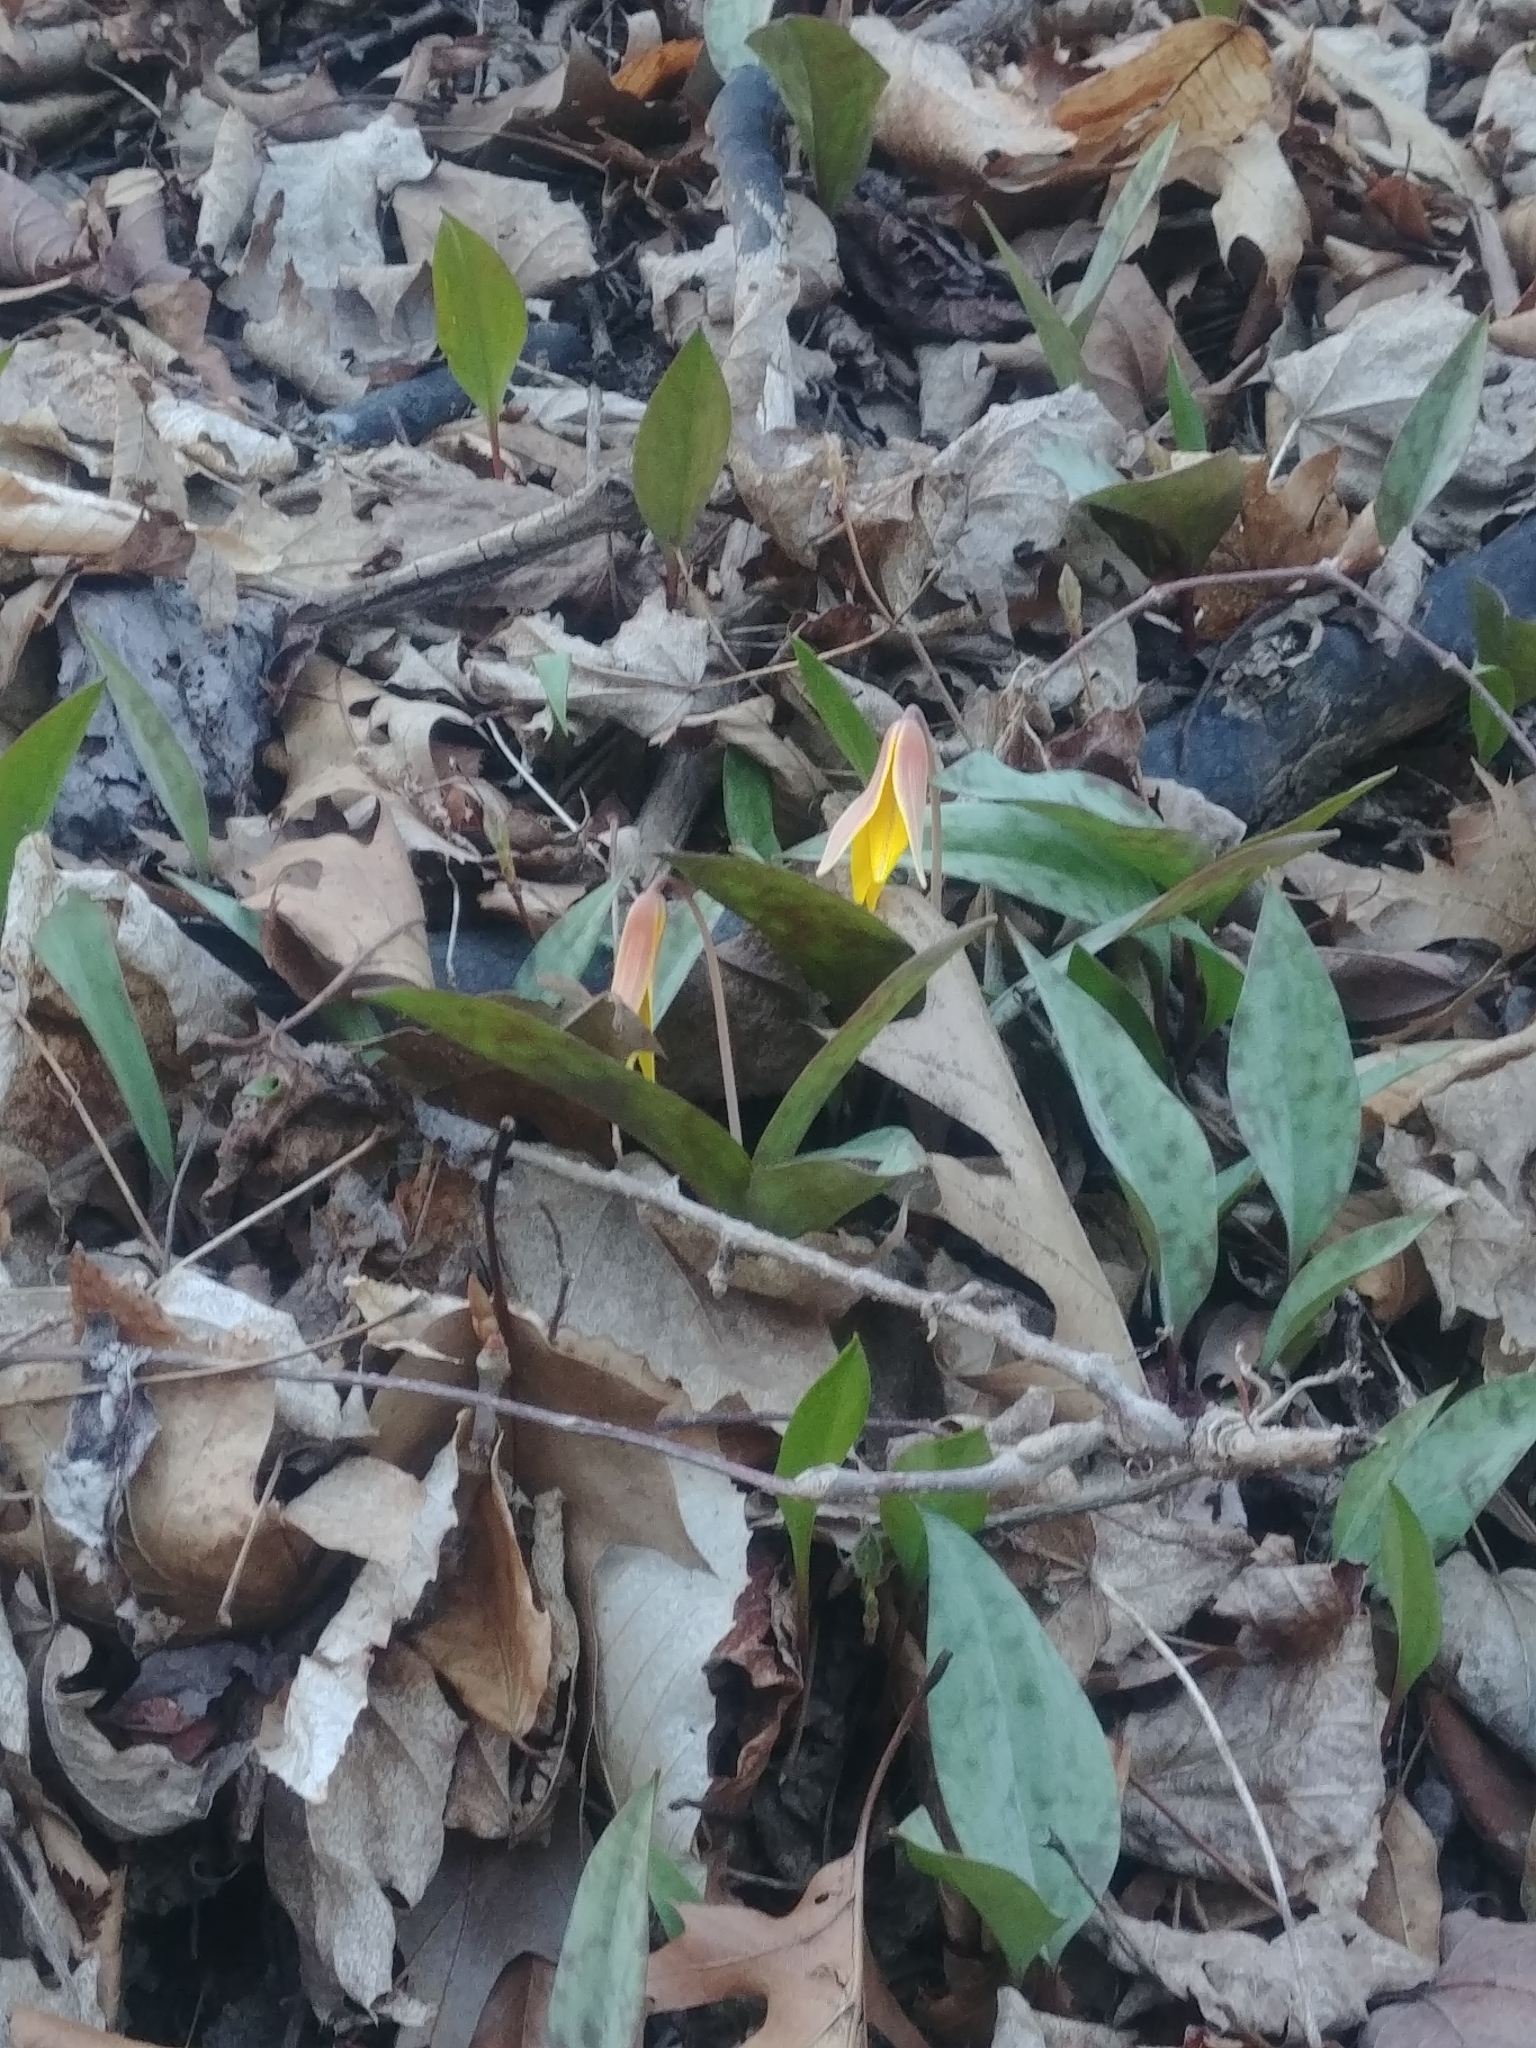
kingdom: Plantae
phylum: Tracheophyta
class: Liliopsida
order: Liliales
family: Liliaceae
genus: Erythronium
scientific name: Erythronium americanum
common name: Yellow adder's-tongue
